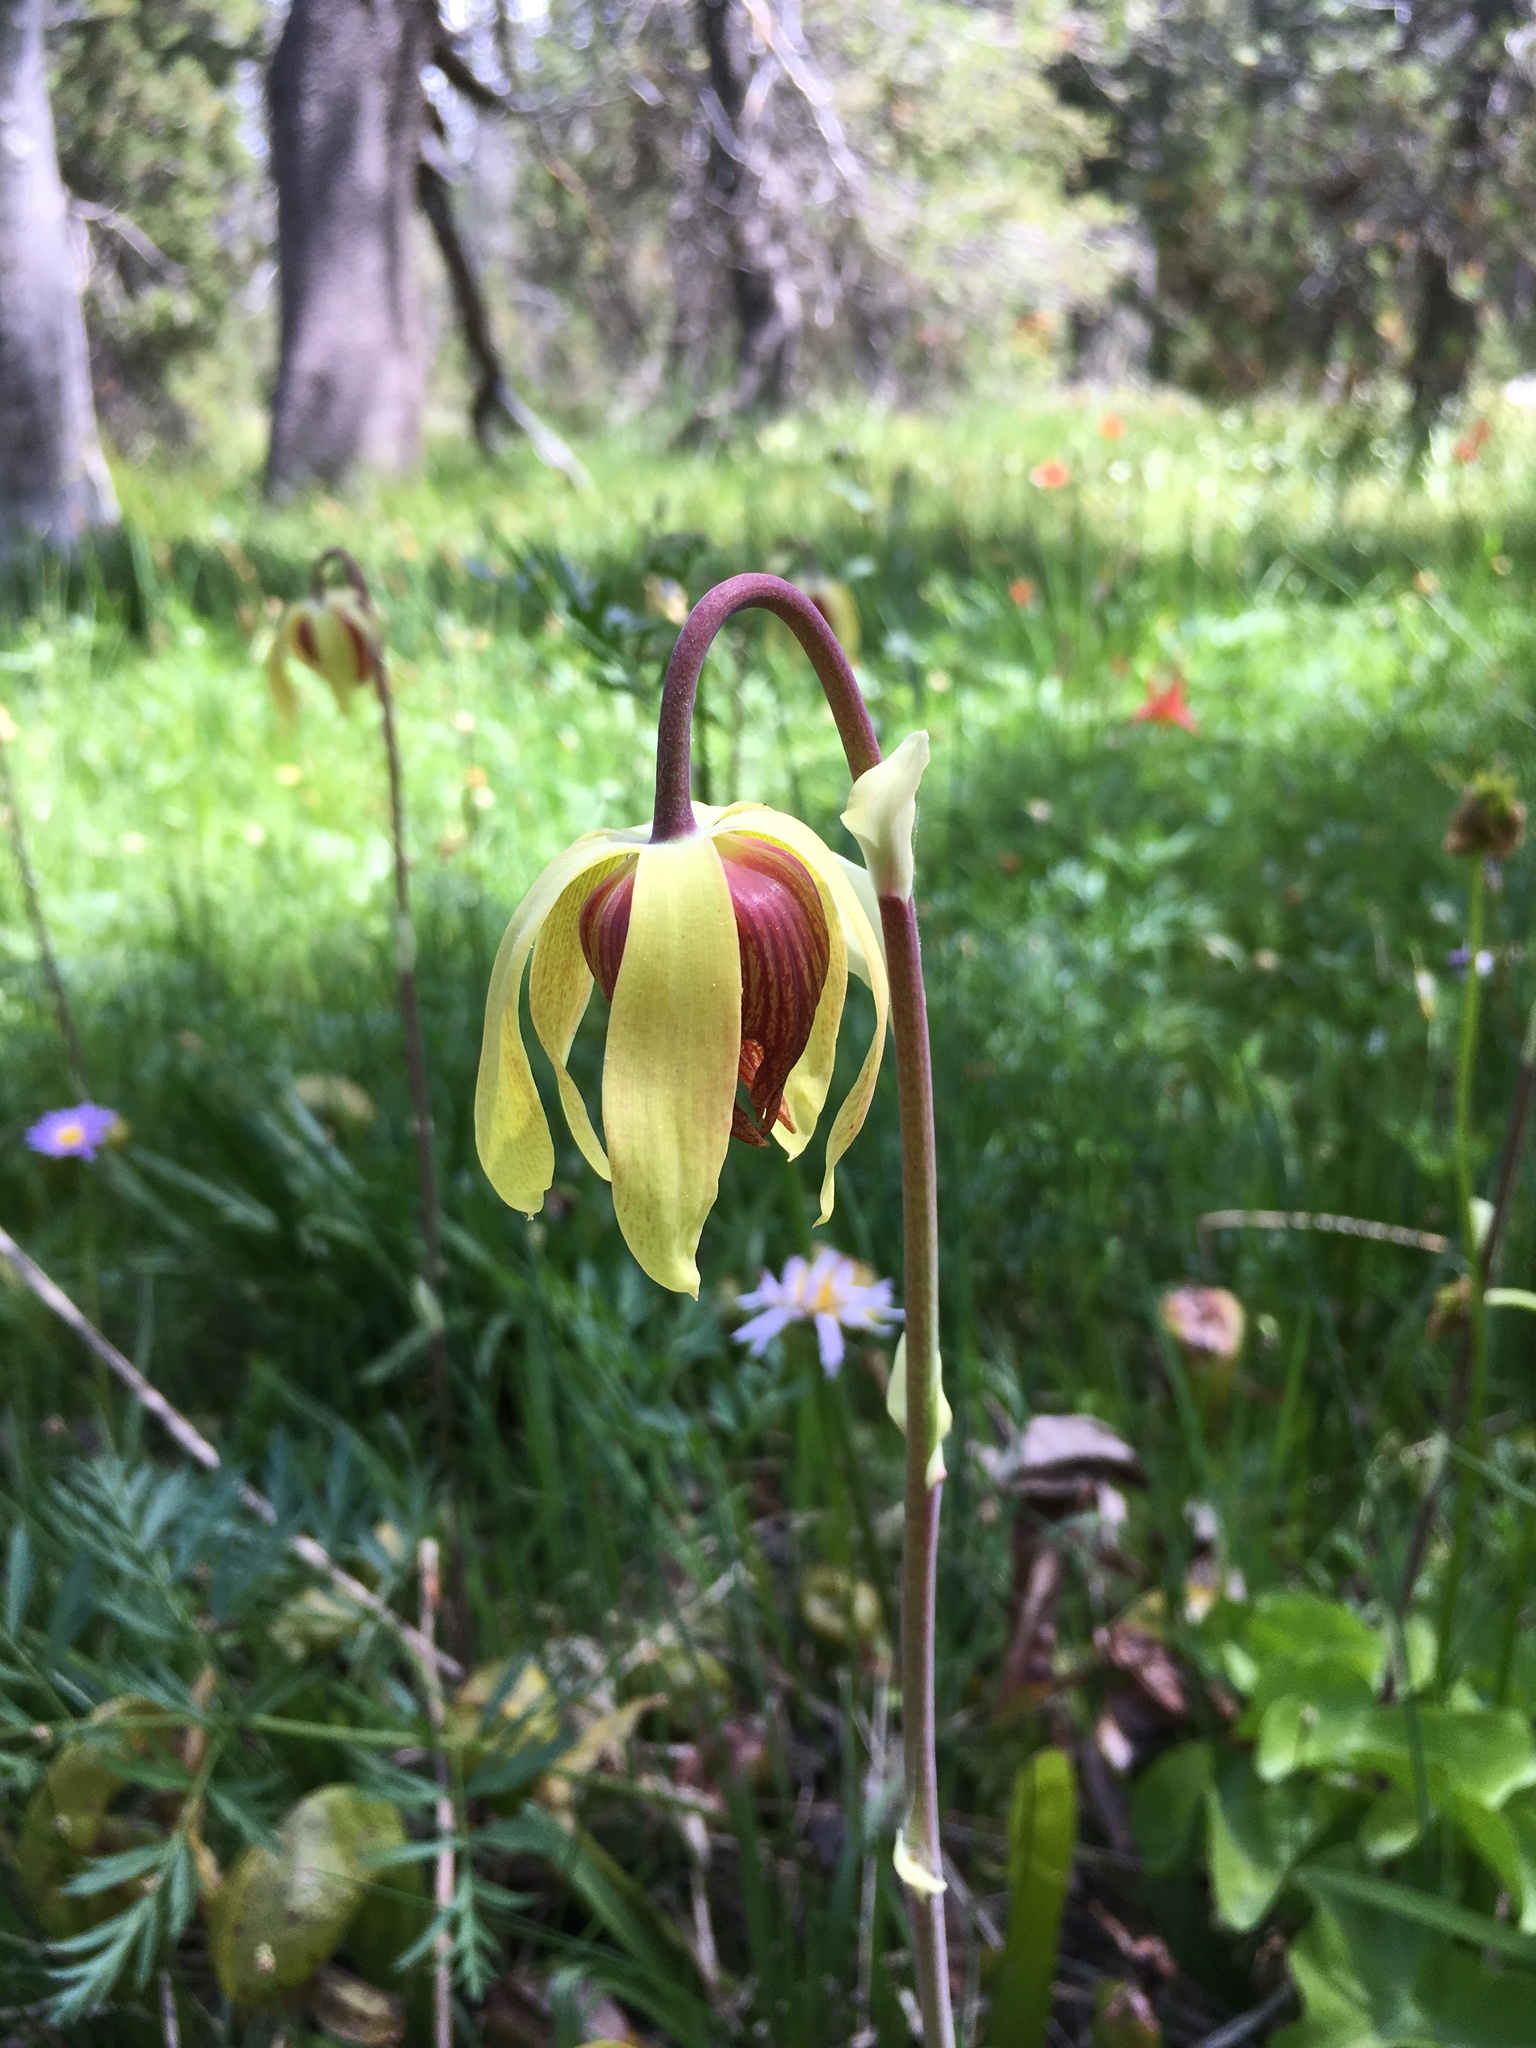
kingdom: Plantae
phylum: Tracheophyta
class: Magnoliopsida
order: Ericales
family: Sarraceniaceae
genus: Darlingtonia
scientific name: Darlingtonia californica
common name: California pitcher plant
